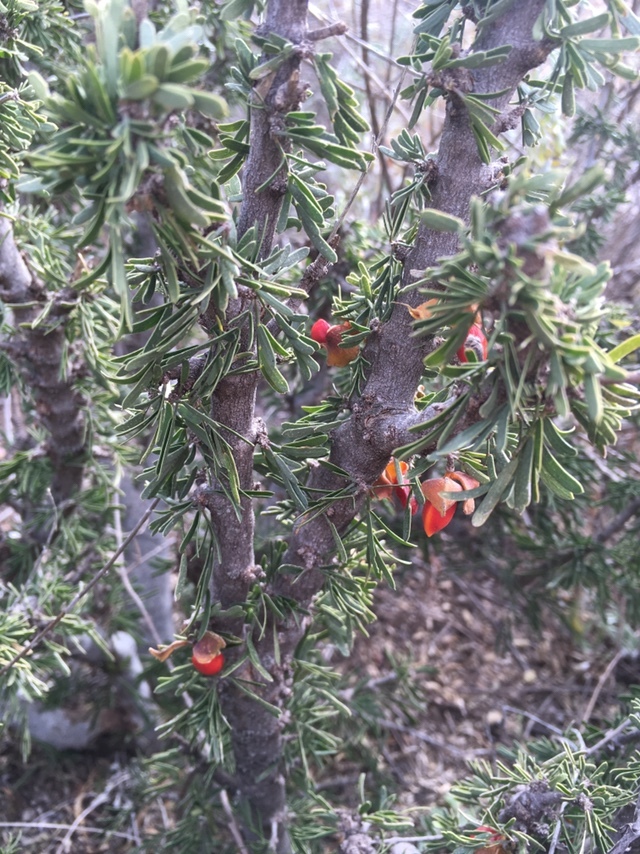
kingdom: Plantae
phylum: Tracheophyta
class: Magnoliopsida
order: Zygophyllales
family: Zygophyllaceae
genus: Porlieria
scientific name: Porlieria angustifolia
